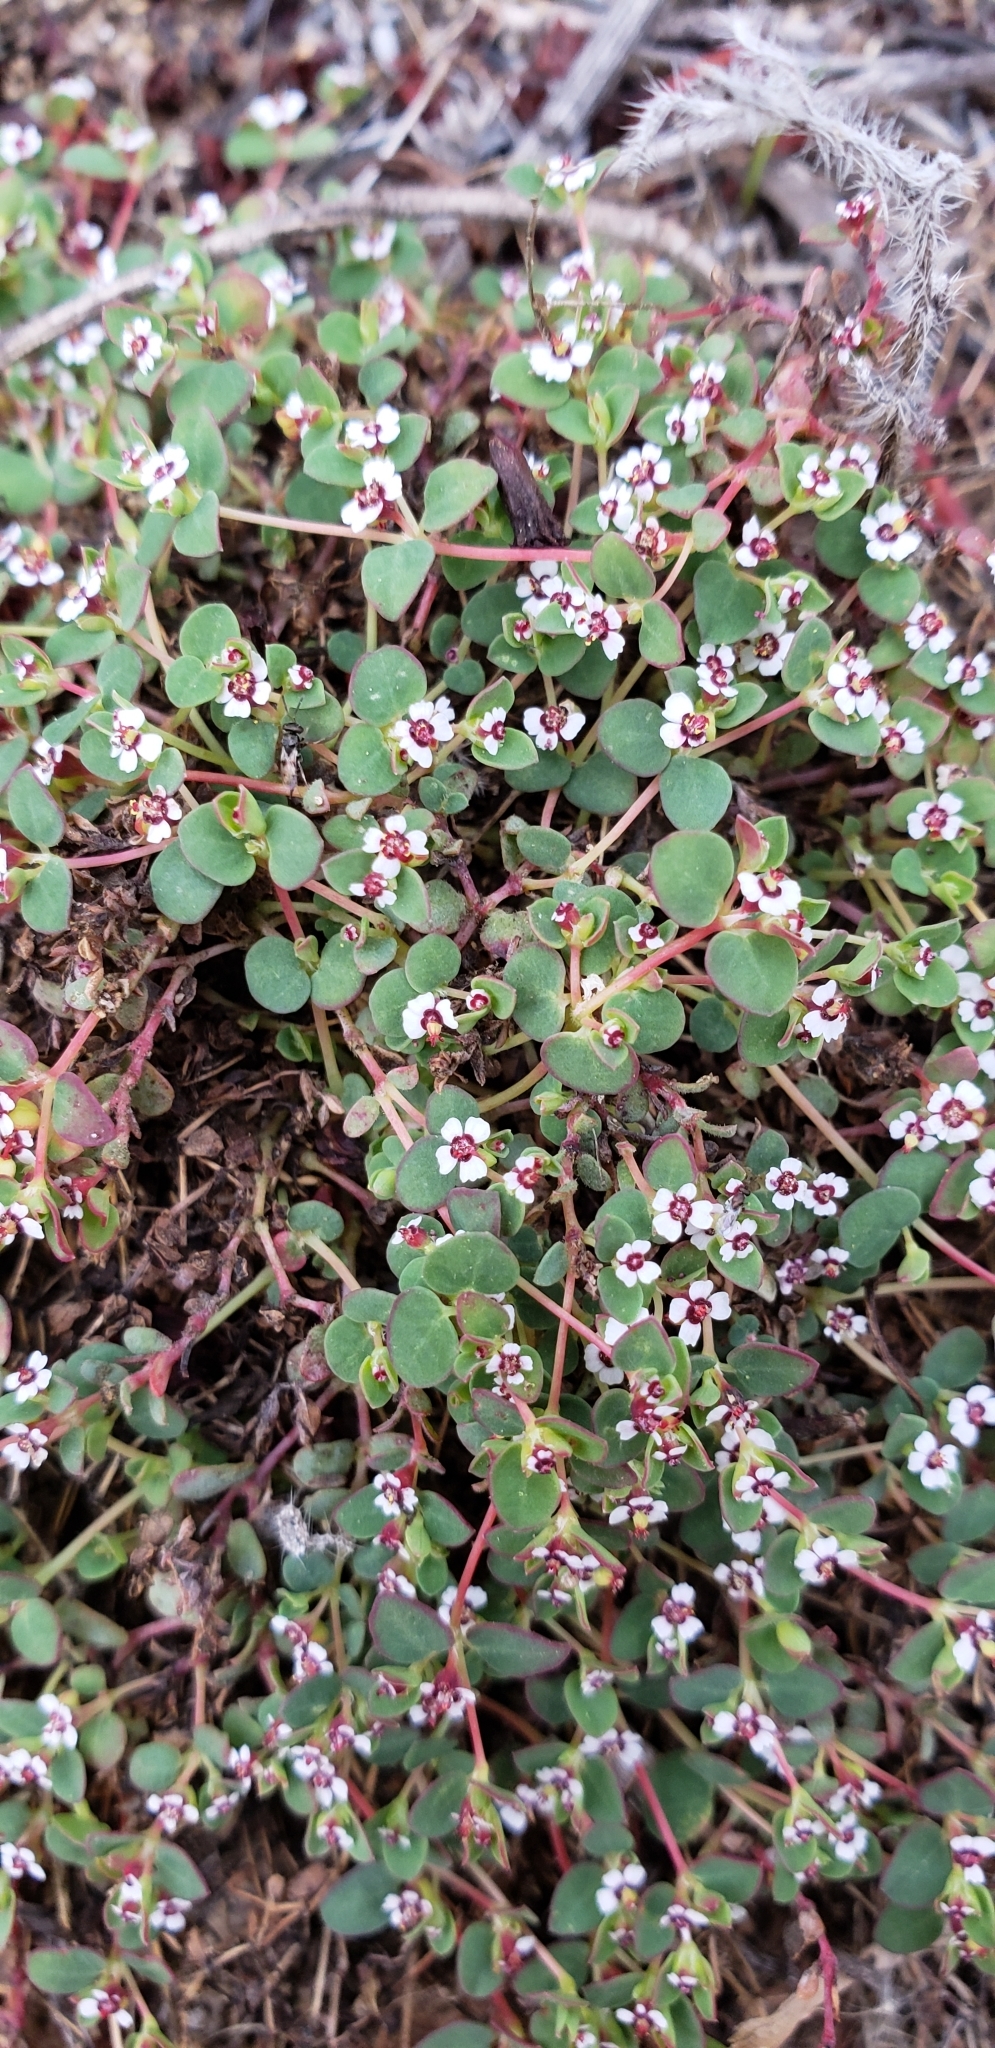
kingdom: Plantae
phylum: Tracheophyta
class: Magnoliopsida
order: Malpighiales
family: Euphorbiaceae
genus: Euphorbia
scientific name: Euphorbia polycarpa
